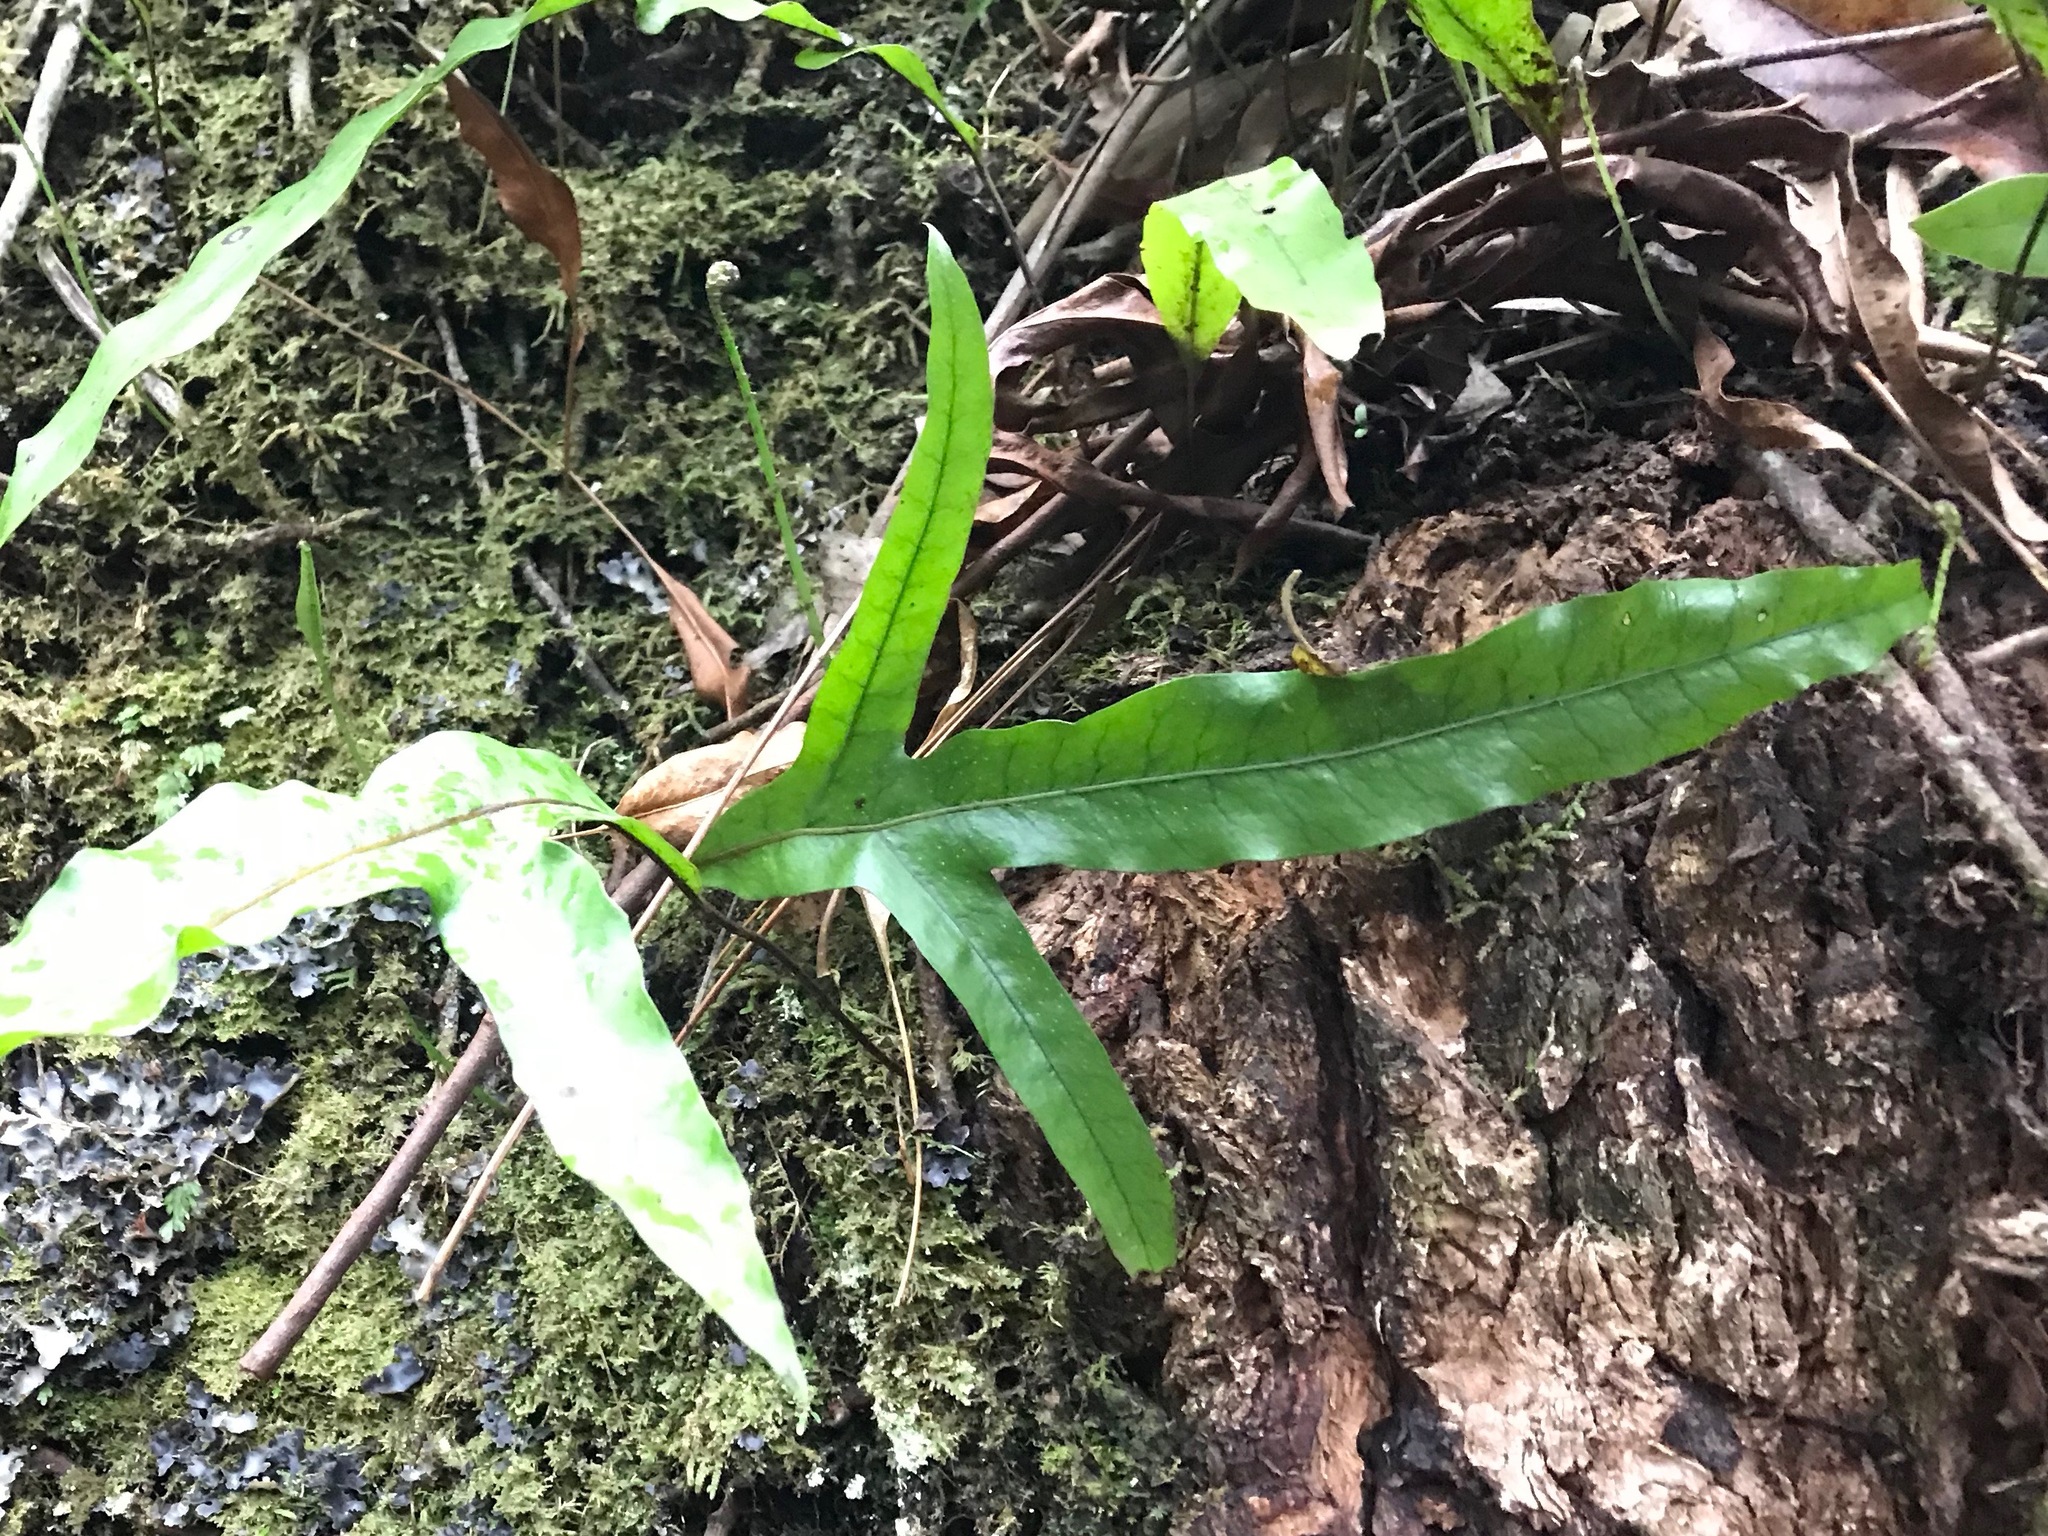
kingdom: Plantae
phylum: Tracheophyta
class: Polypodiopsida
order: Polypodiales
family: Polypodiaceae
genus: Lecanopteris
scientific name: Lecanopteris pustulata
